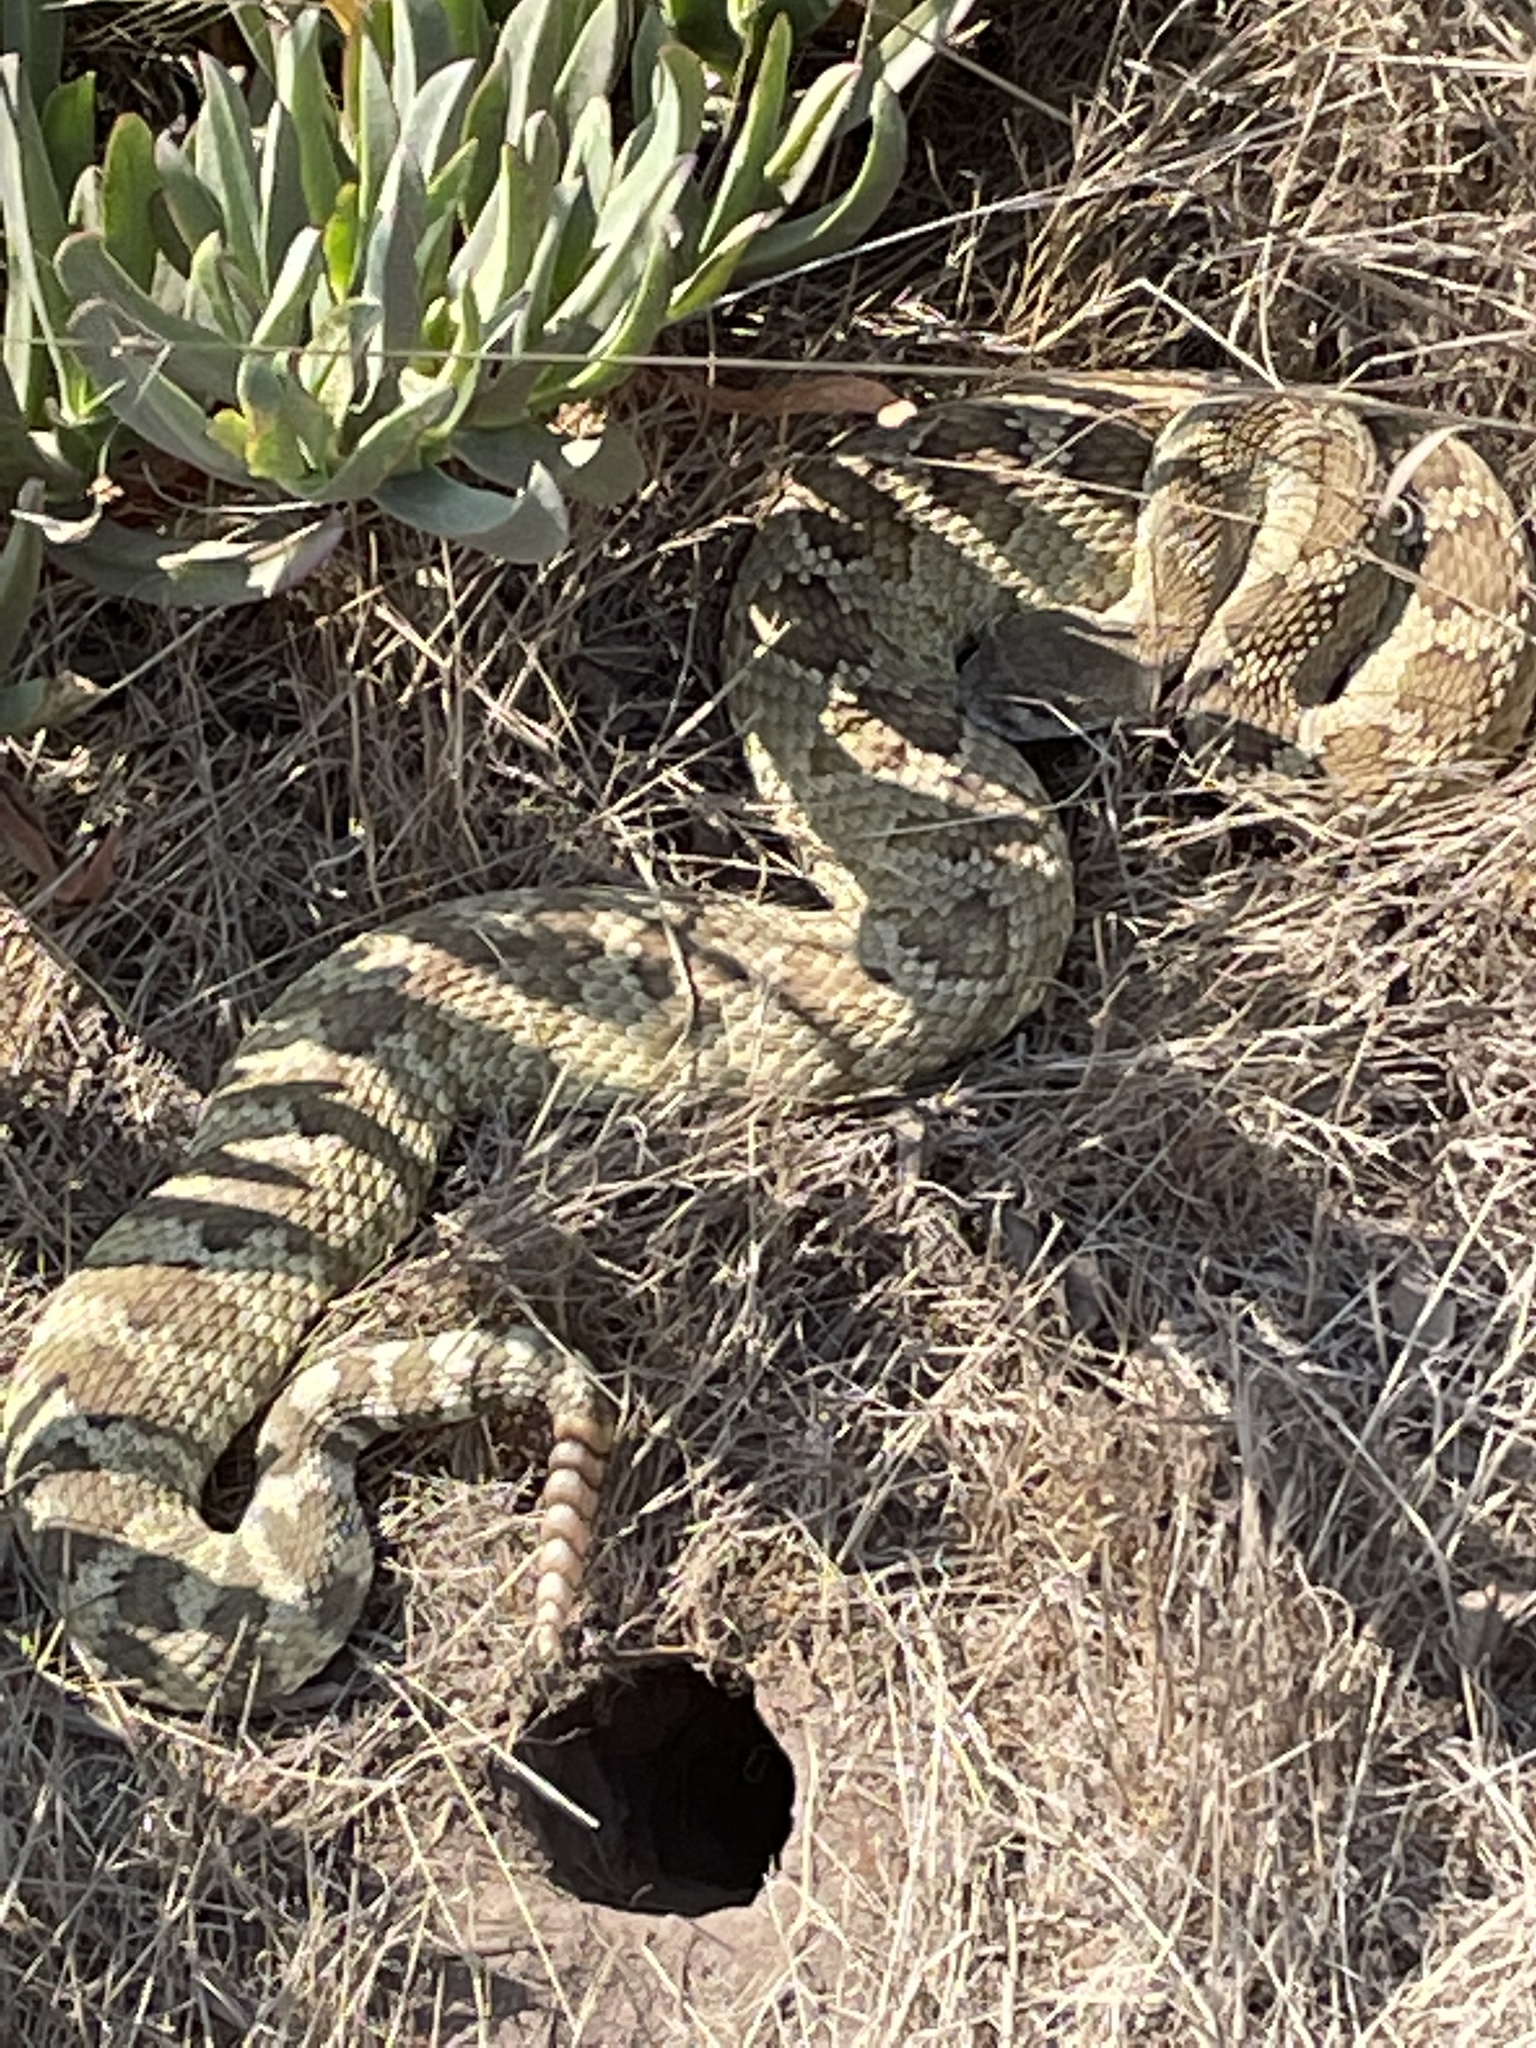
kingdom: Animalia
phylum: Chordata
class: Squamata
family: Viperidae
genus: Crotalus
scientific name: Crotalus oreganus
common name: Abyssus
